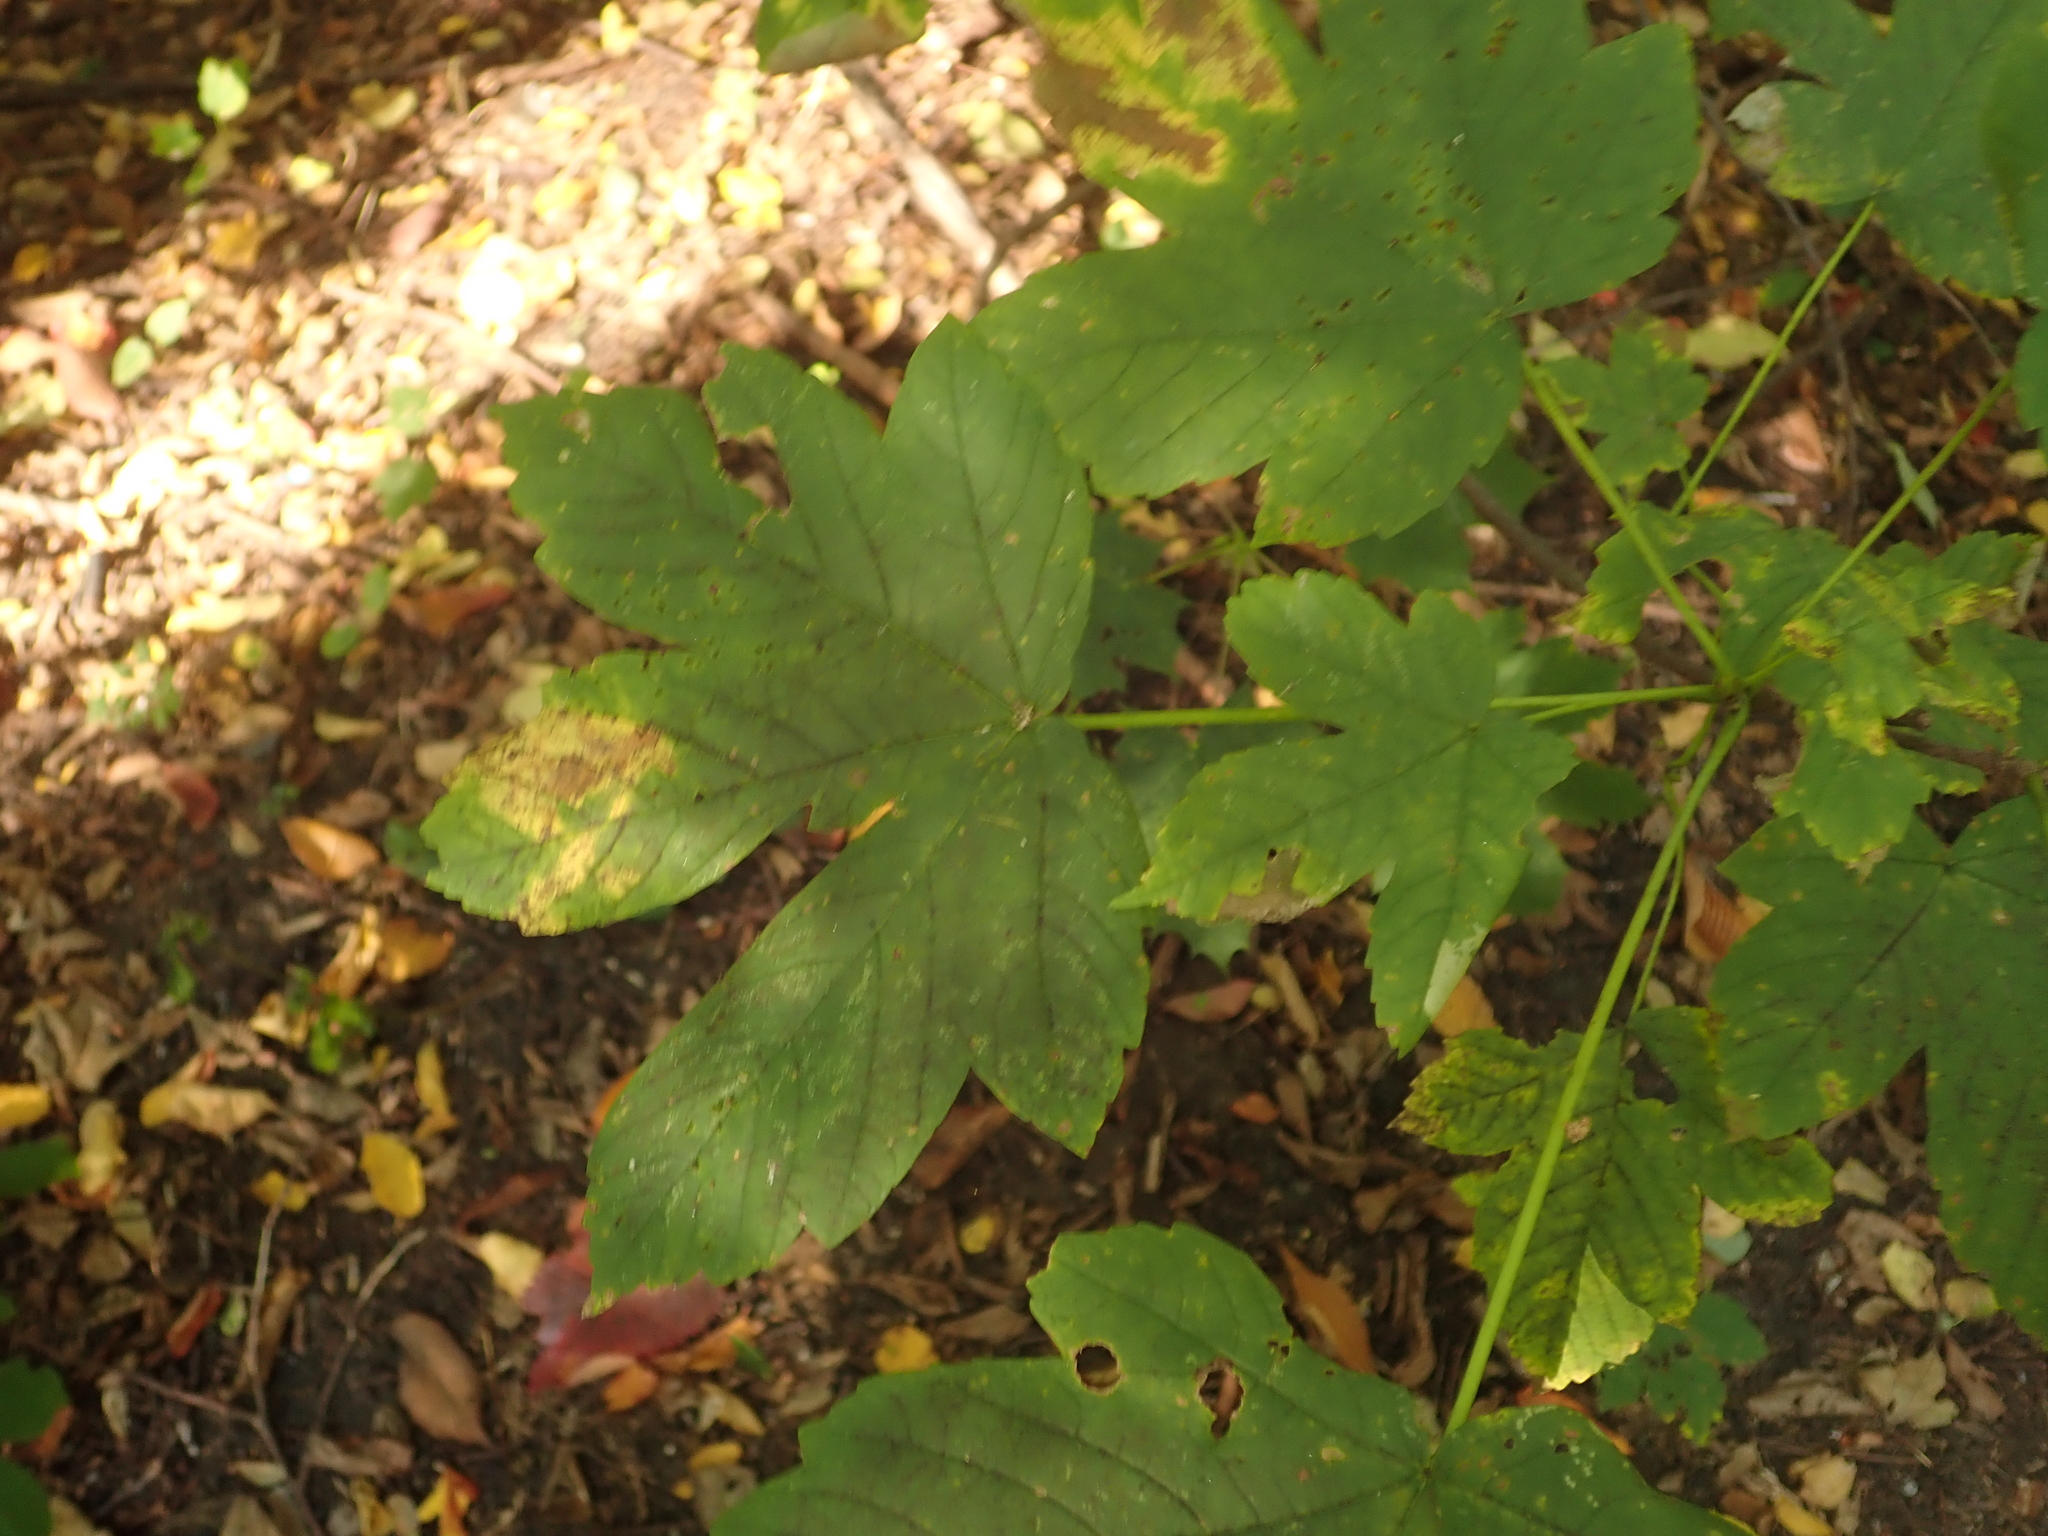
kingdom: Plantae
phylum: Tracheophyta
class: Magnoliopsida
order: Sapindales
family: Sapindaceae
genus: Acer
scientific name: Acer pseudoplatanus
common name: Sycamore
